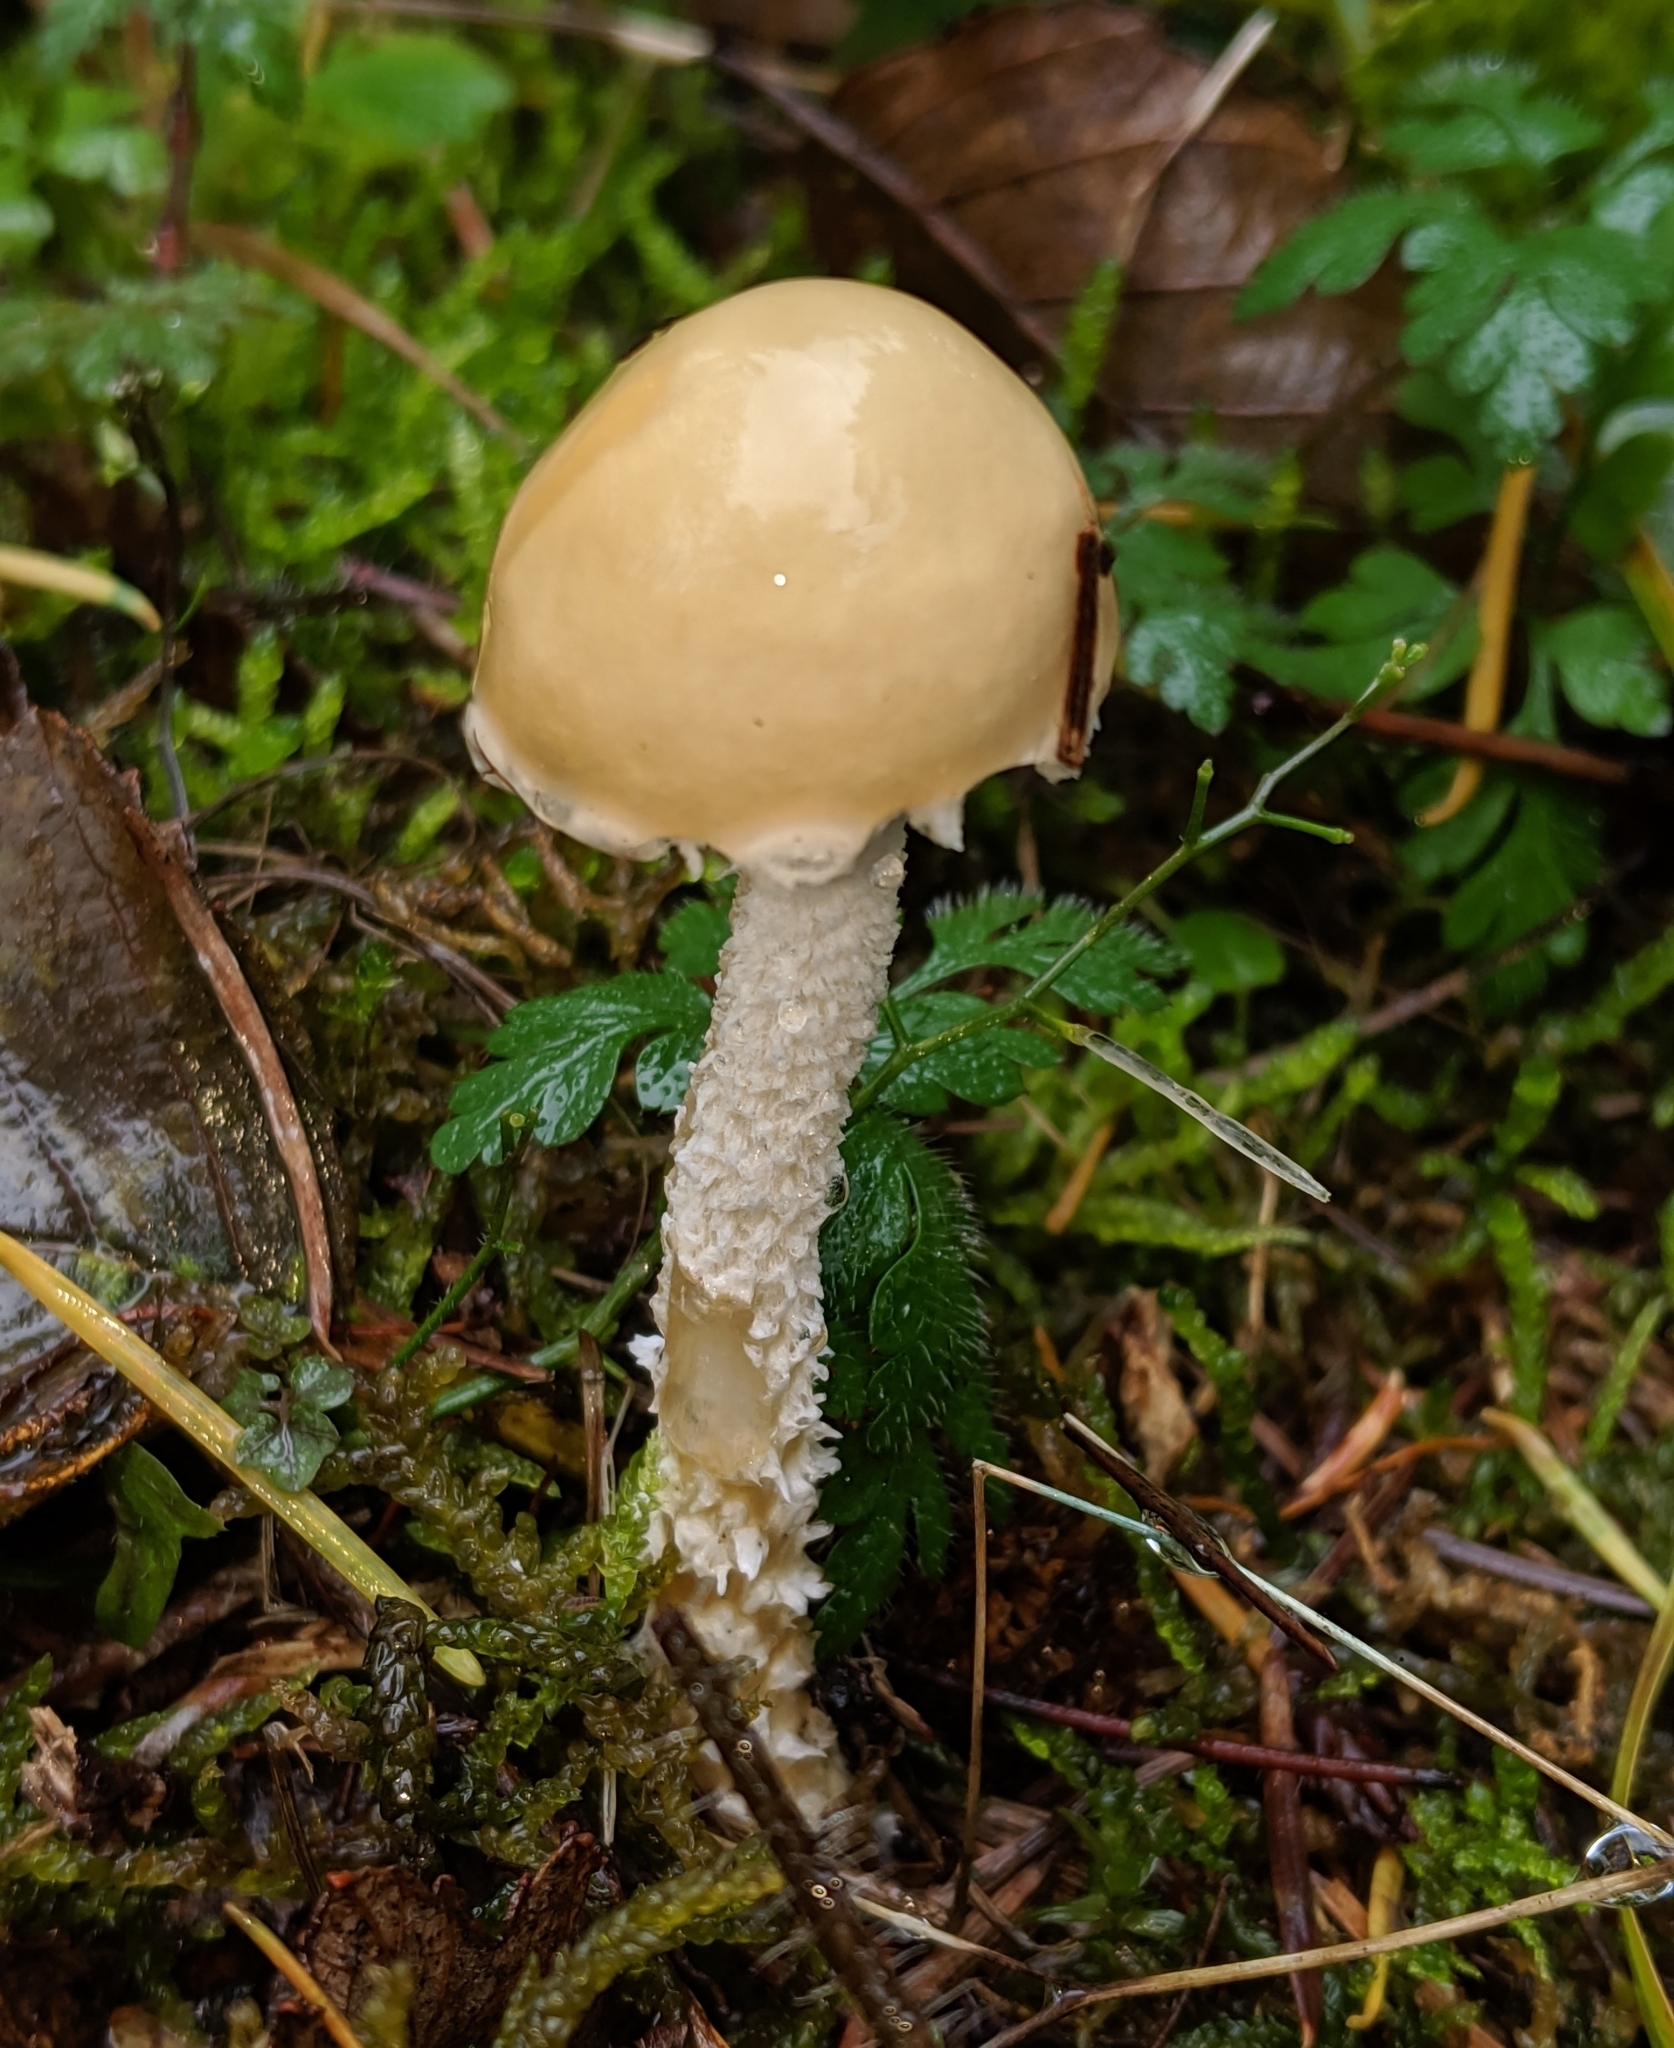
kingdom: Fungi
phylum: Basidiomycota
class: Agaricomycetes
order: Agaricales
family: Strophariaceae
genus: Stropharia
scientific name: Stropharia ambigua
